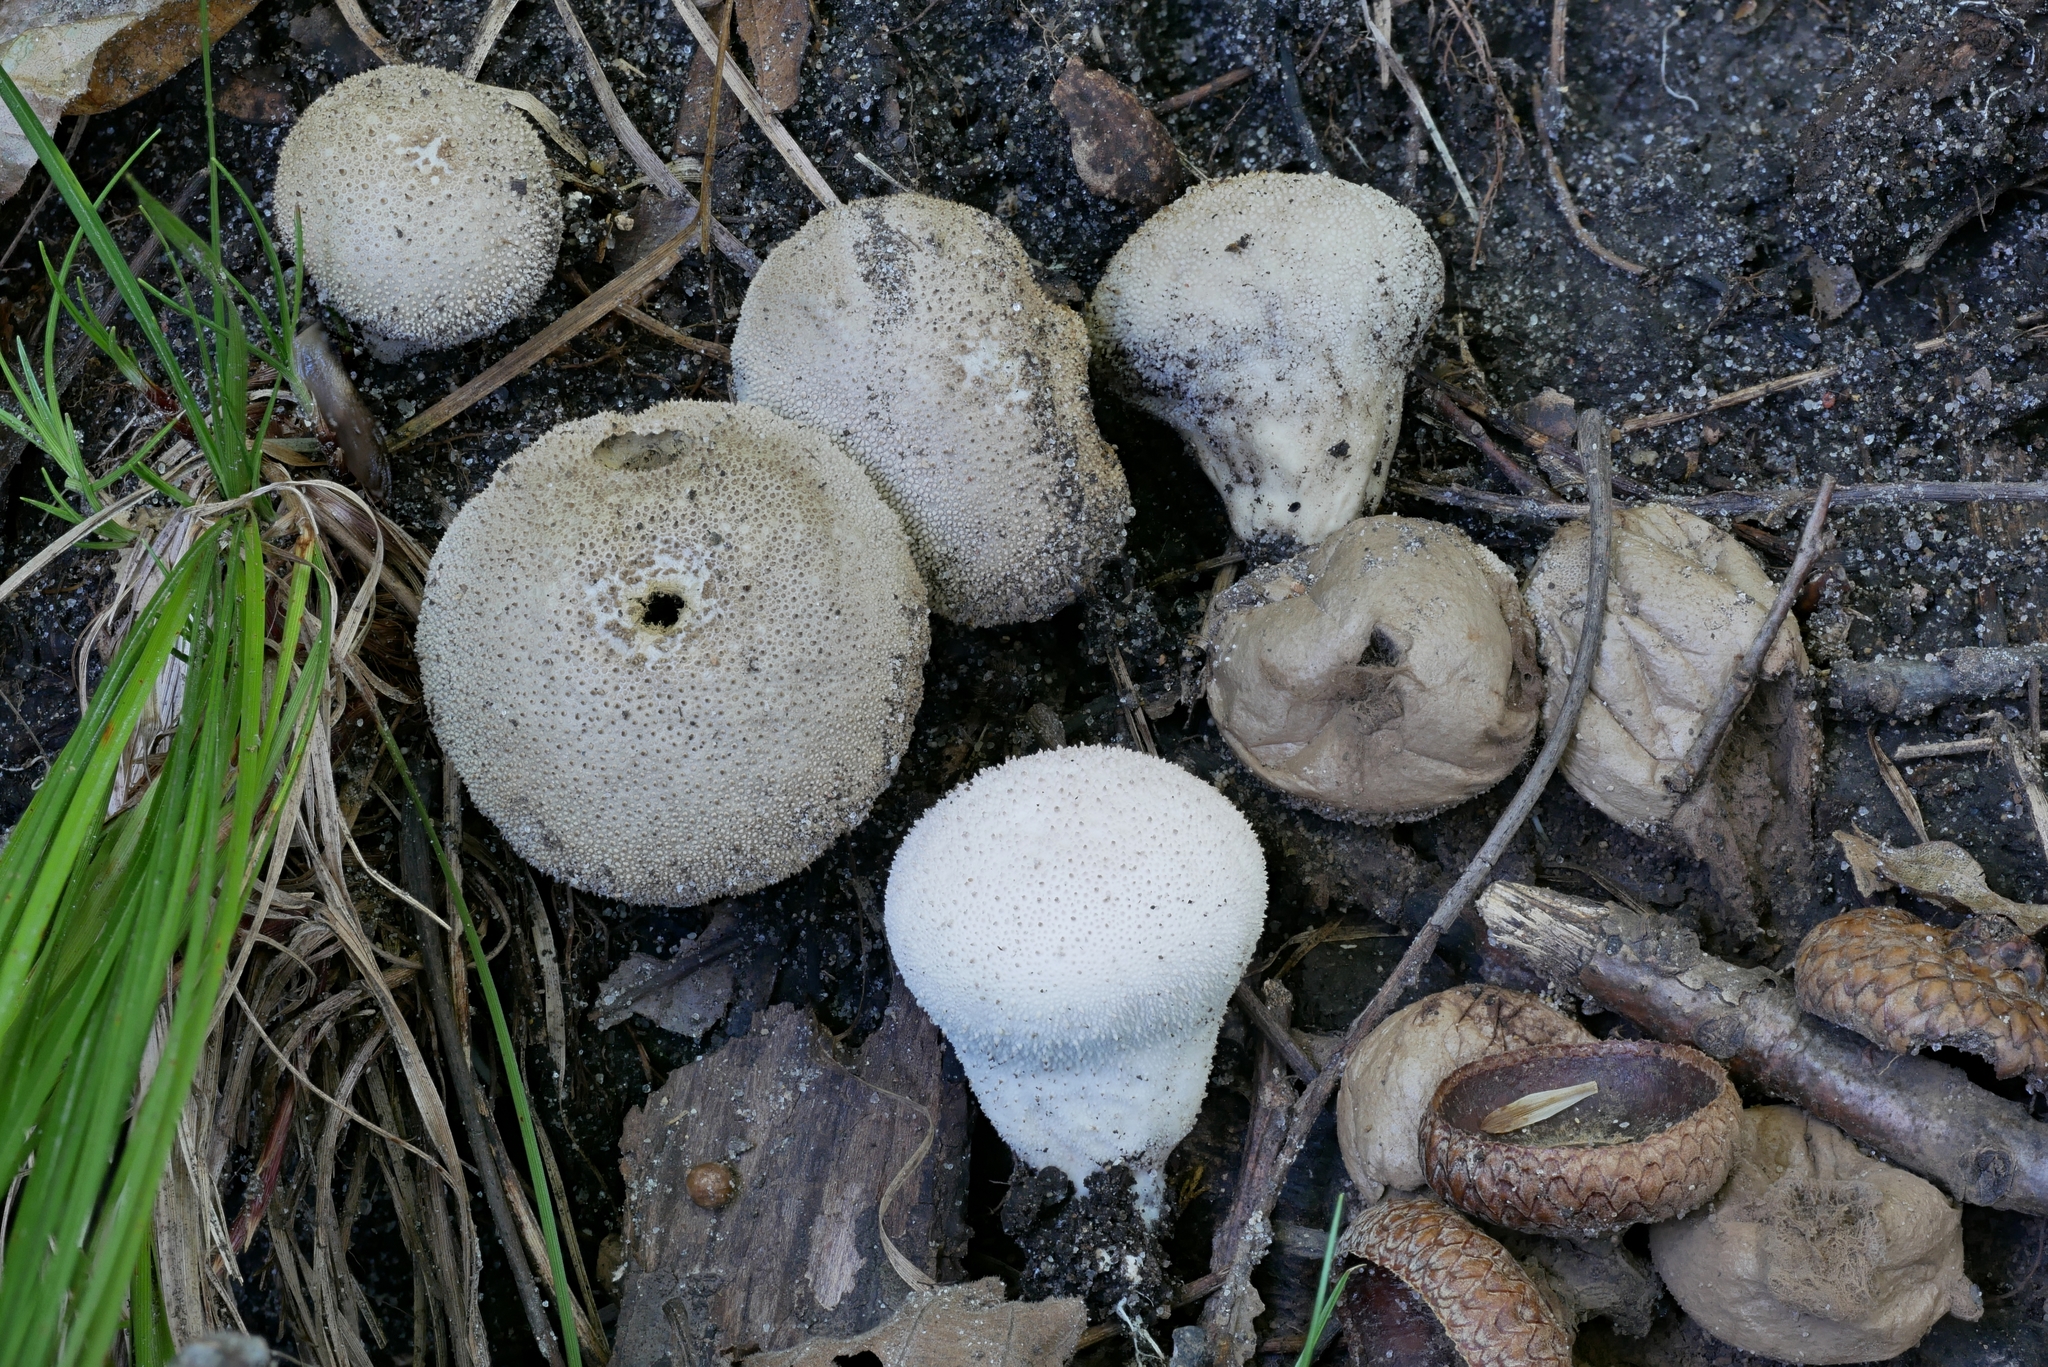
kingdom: Fungi
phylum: Basidiomycota
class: Agaricomycetes
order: Agaricales
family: Lycoperdaceae
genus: Lycoperdon
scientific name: Lycoperdon perlatum
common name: Common puffball
